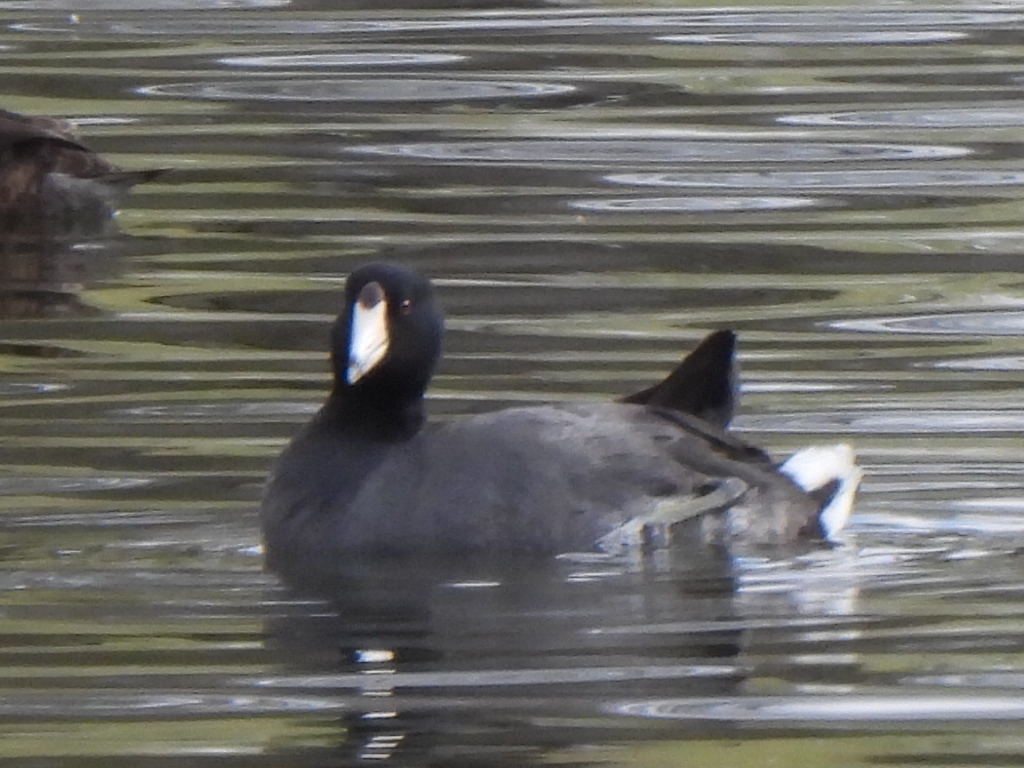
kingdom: Animalia
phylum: Chordata
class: Aves
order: Gruiformes
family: Rallidae
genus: Fulica
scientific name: Fulica americana
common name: American coot
